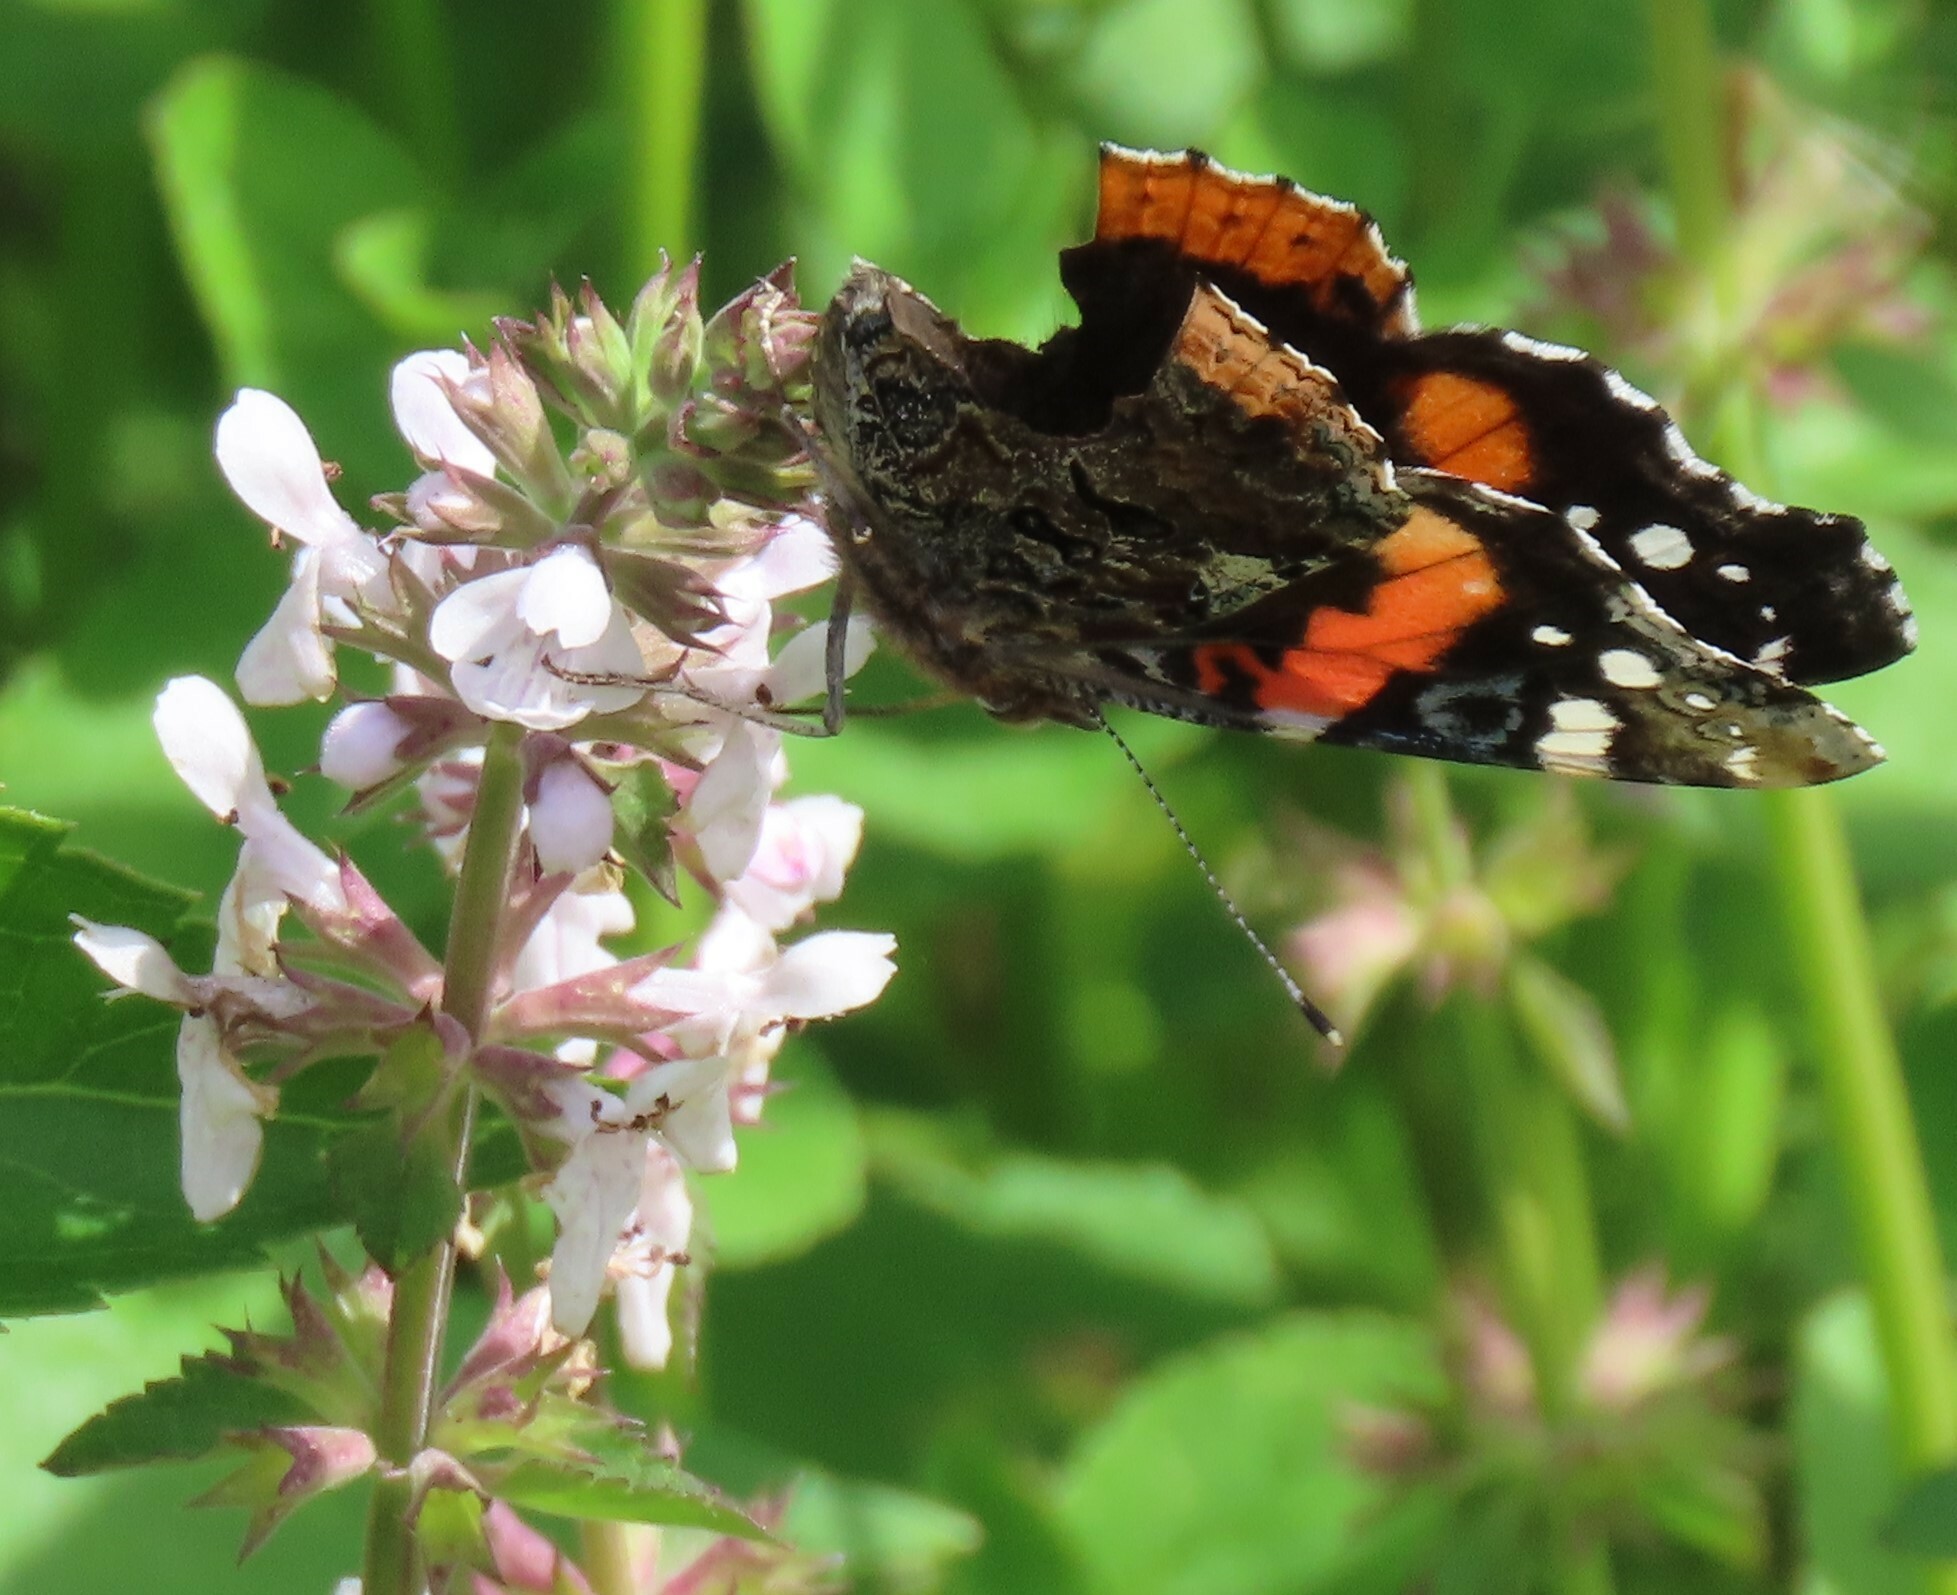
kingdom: Animalia
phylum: Arthropoda
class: Insecta
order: Lepidoptera
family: Nymphalidae
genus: Vanessa
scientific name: Vanessa atalanta
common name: Red admiral
